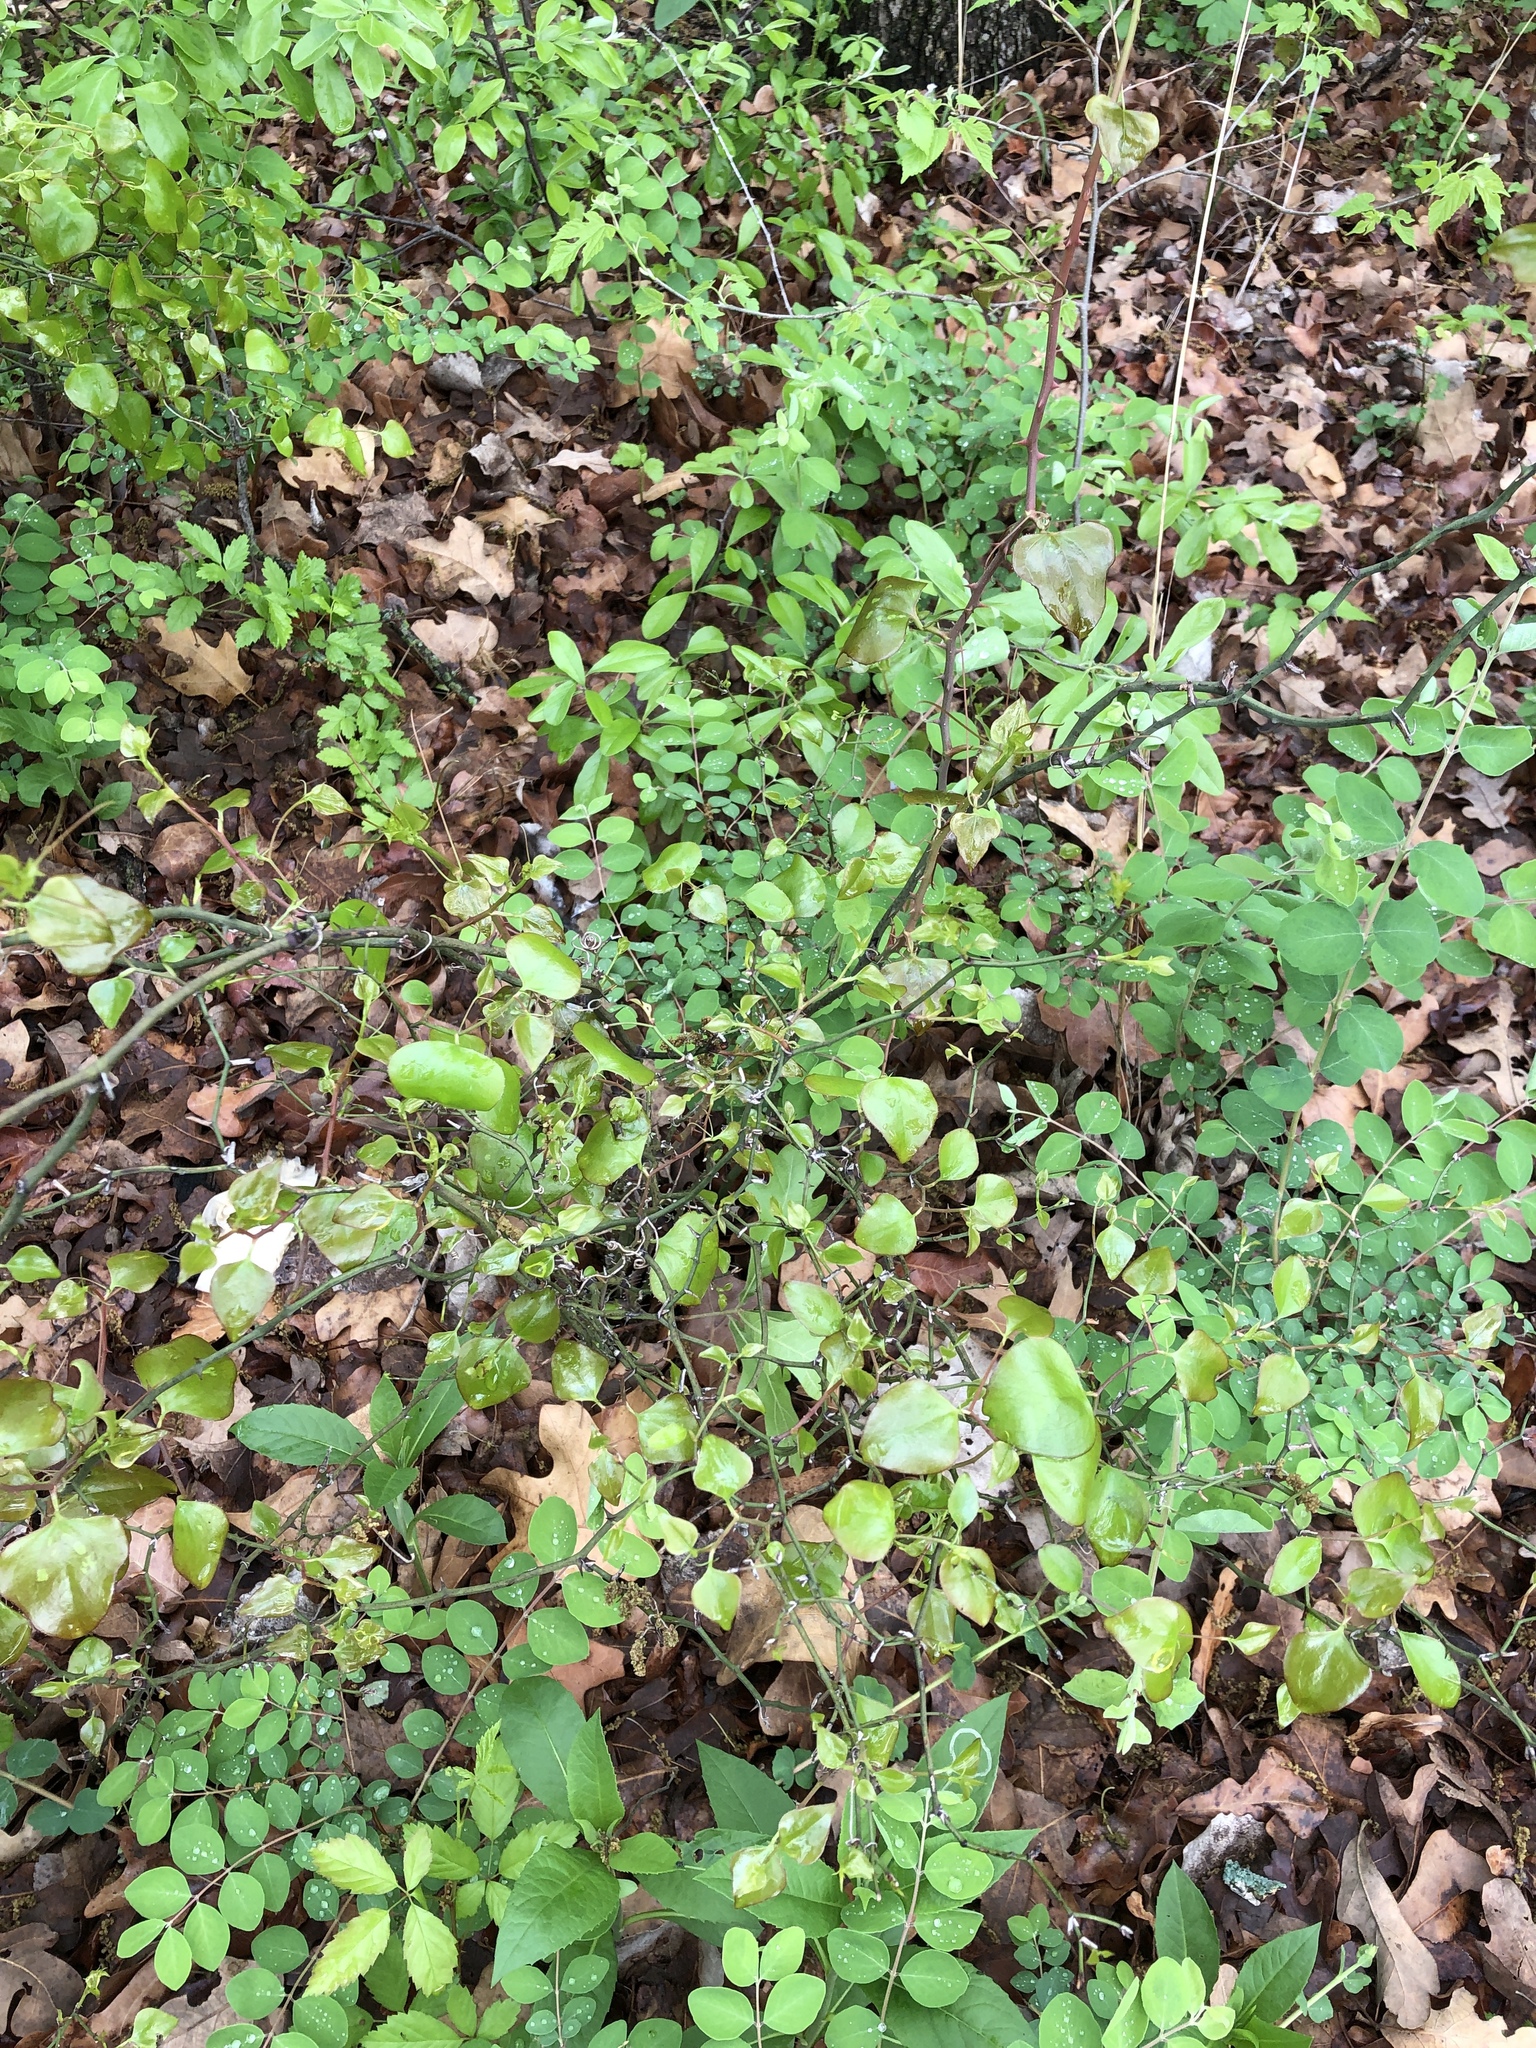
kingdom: Plantae
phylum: Tracheophyta
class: Liliopsida
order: Liliales
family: Smilacaceae
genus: Smilax
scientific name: Smilax bona-nox
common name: Catbrier
